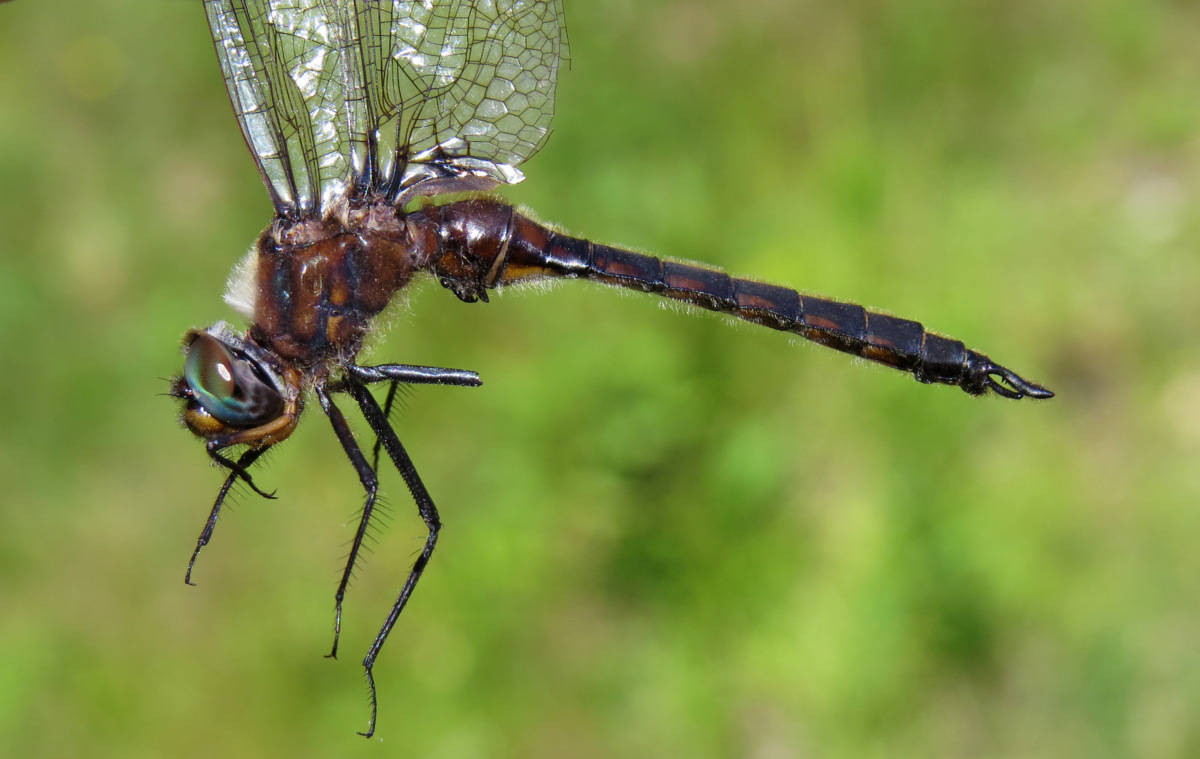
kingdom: Animalia
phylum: Arthropoda
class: Insecta
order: Odonata
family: Corduliidae
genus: Epitheca
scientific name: Epitheca spinigera
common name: Spiny baskettail
